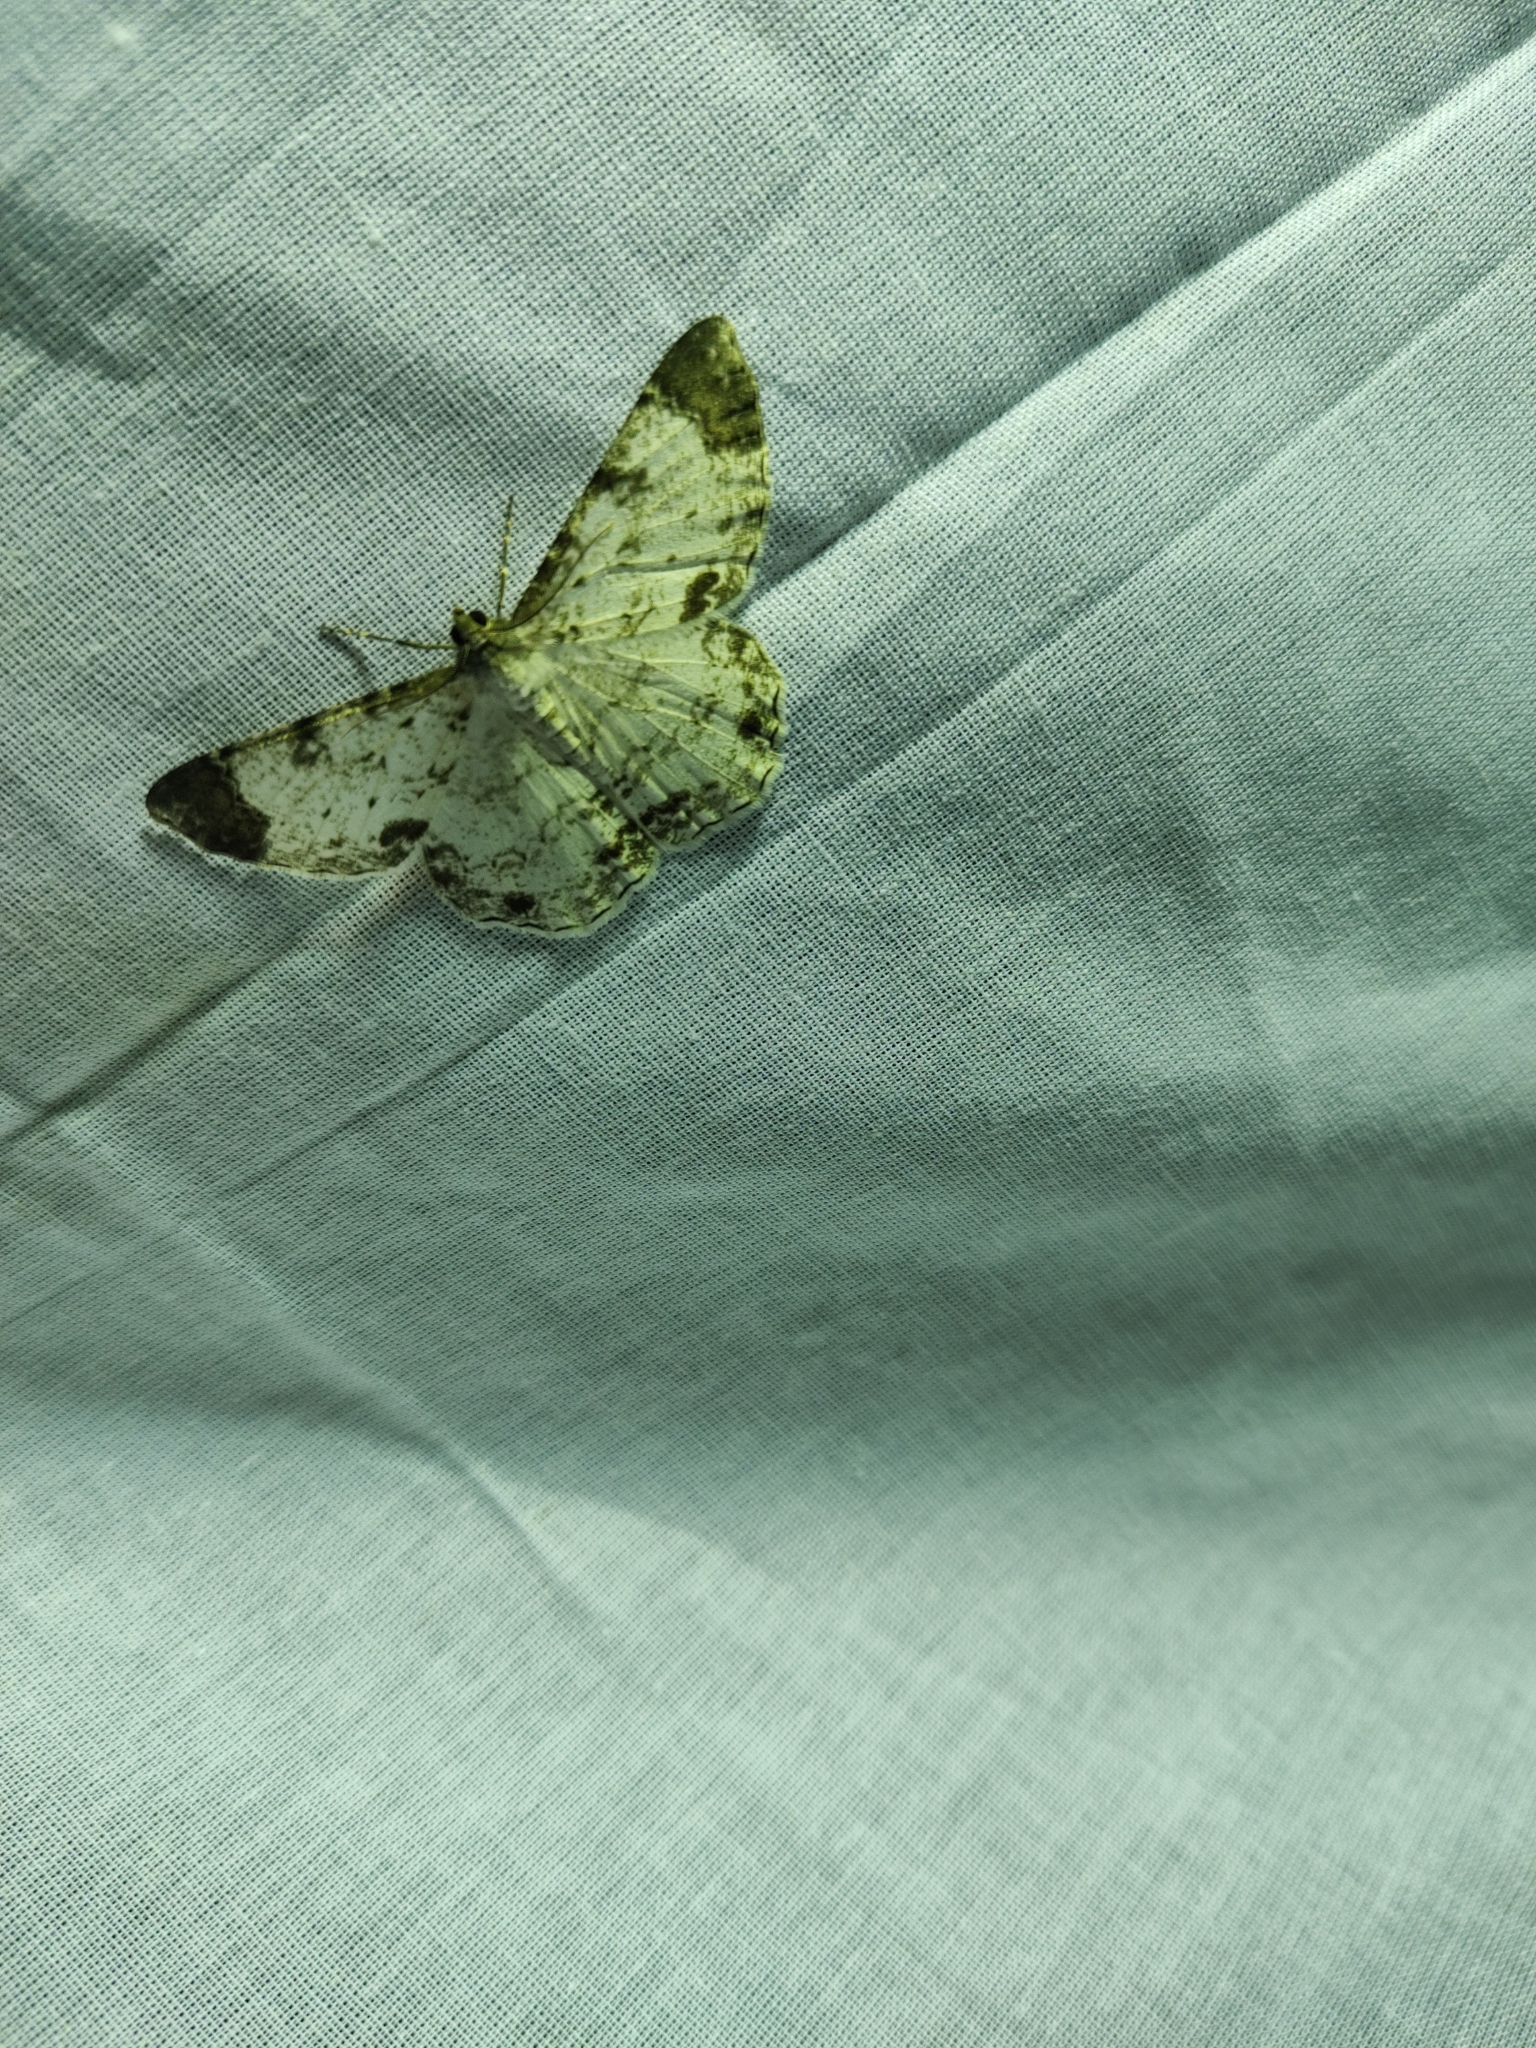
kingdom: Animalia
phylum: Arthropoda
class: Insecta
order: Lepidoptera
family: Geometridae
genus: Epimecis
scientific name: Epimecis diffundaria
